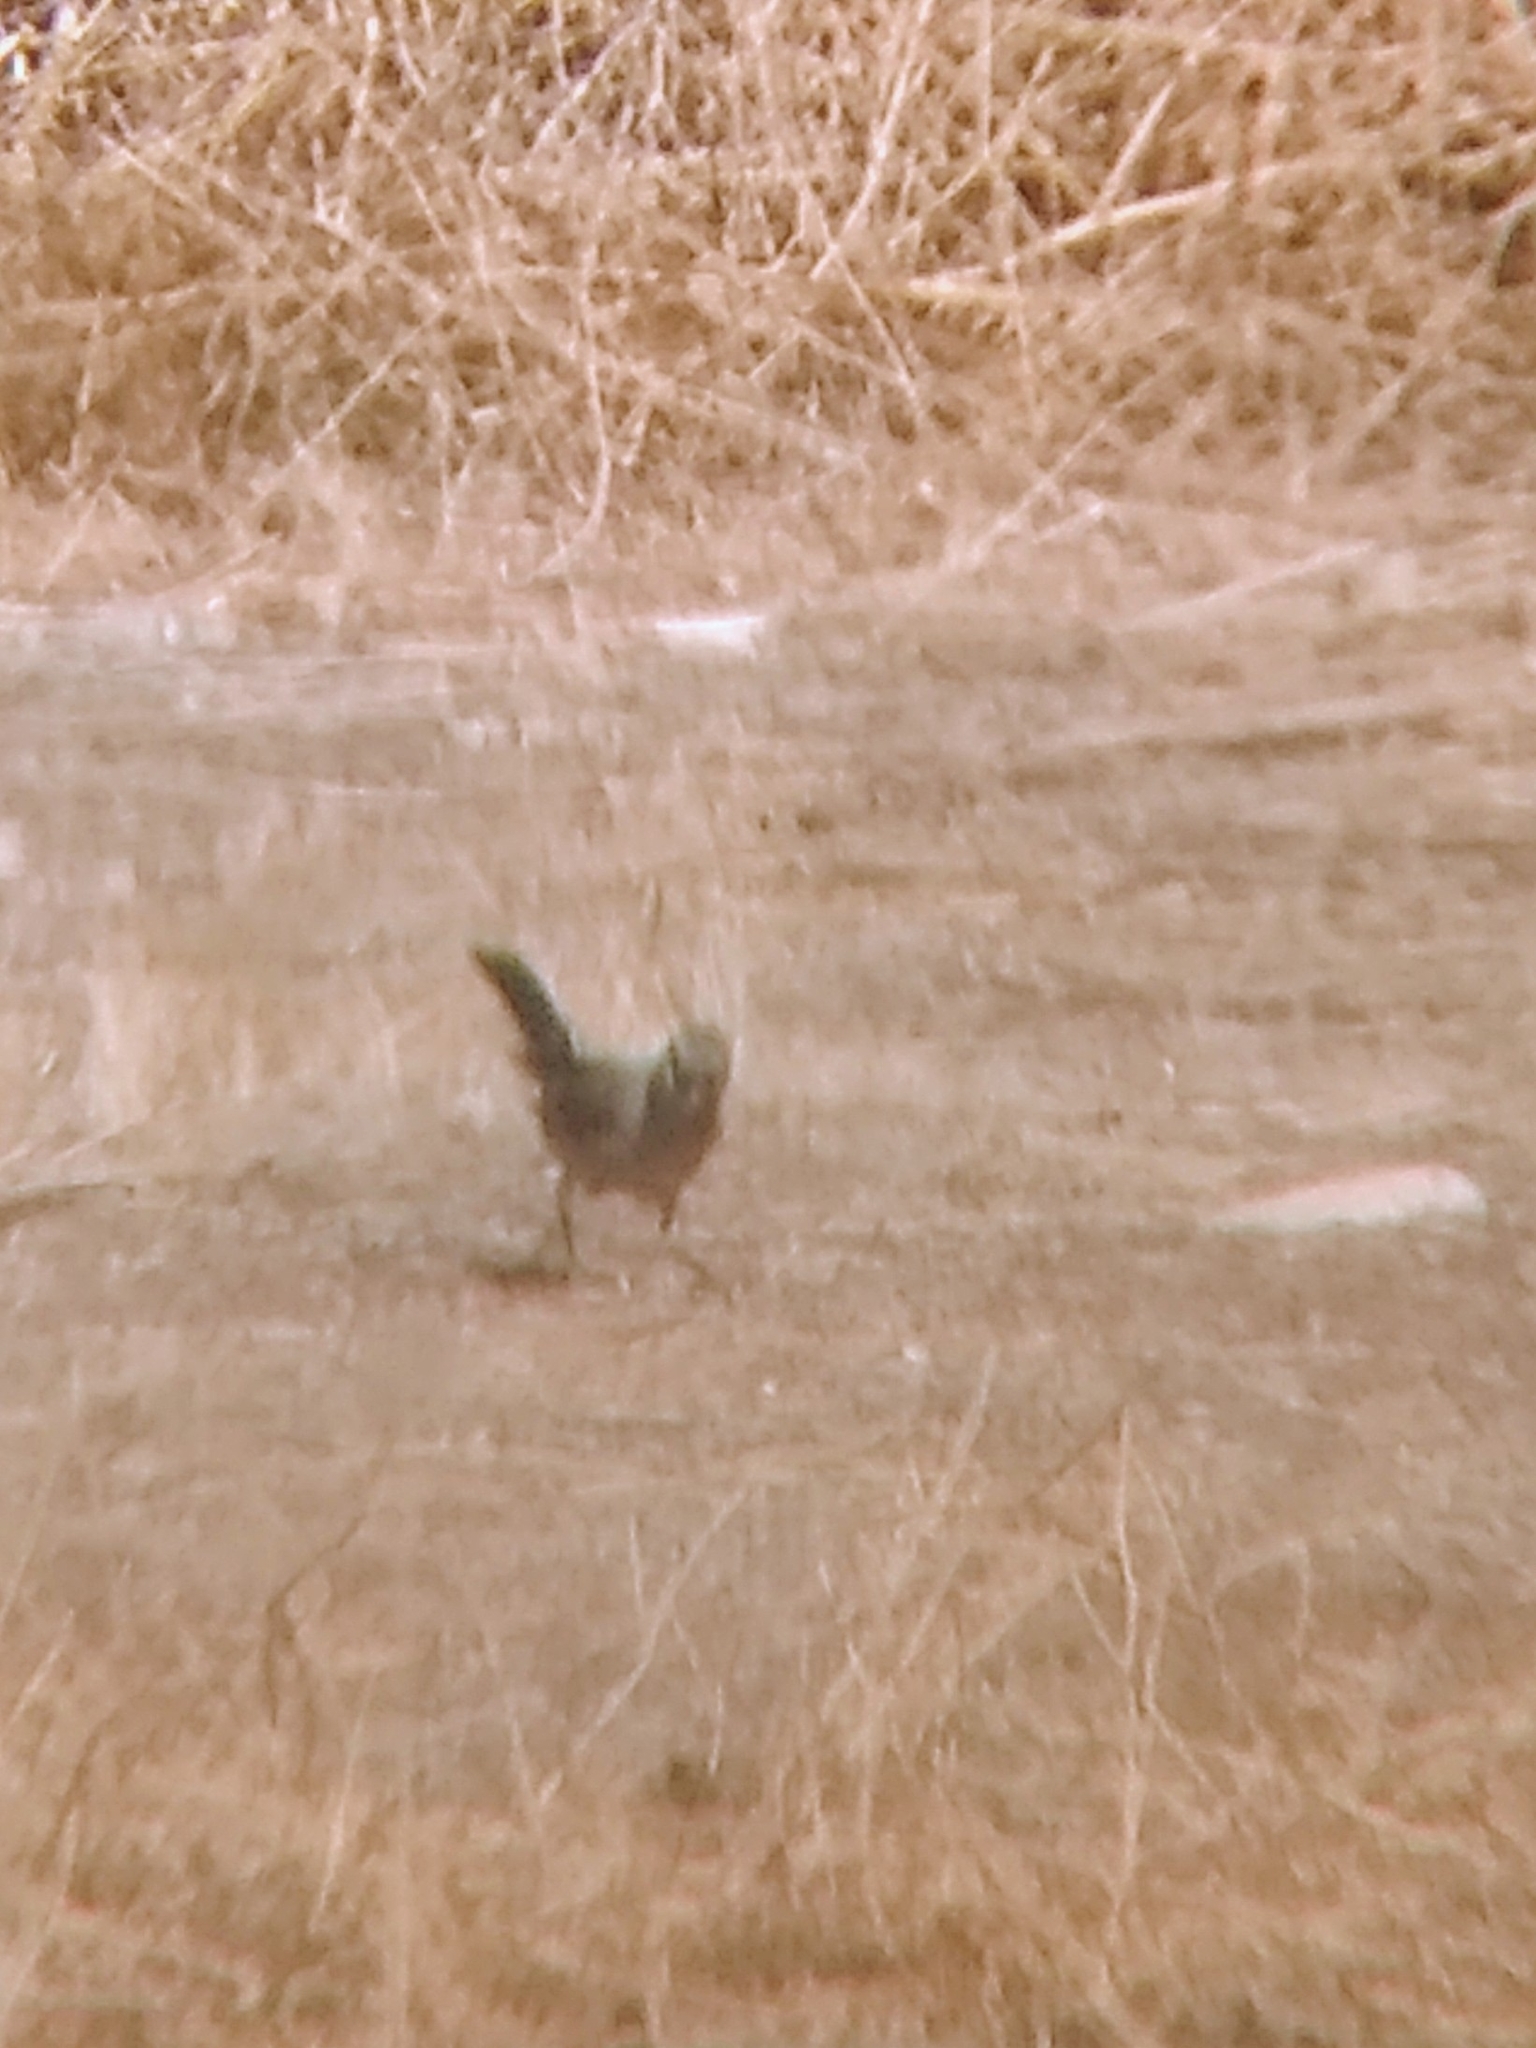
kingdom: Animalia
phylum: Chordata
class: Aves
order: Passeriformes
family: Passerellidae
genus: Melozone
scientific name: Melozone crissalis
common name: California towhee
